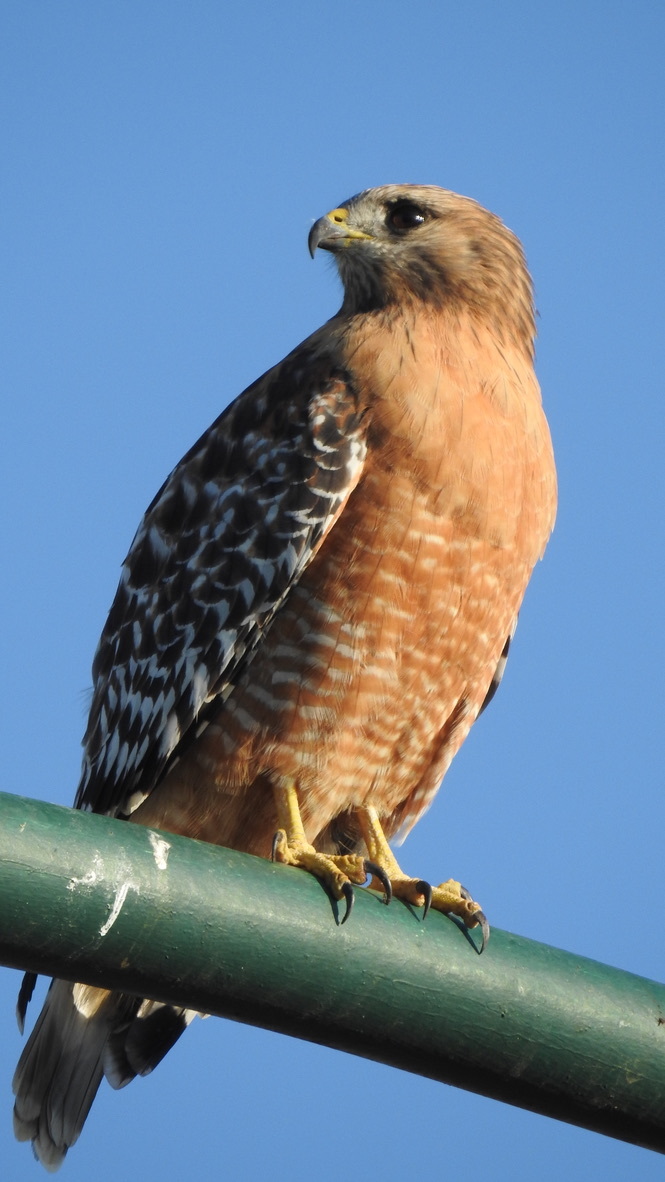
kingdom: Animalia
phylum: Chordata
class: Aves
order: Accipitriformes
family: Accipitridae
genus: Buteo
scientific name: Buteo lineatus
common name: Red-shouldered hawk
